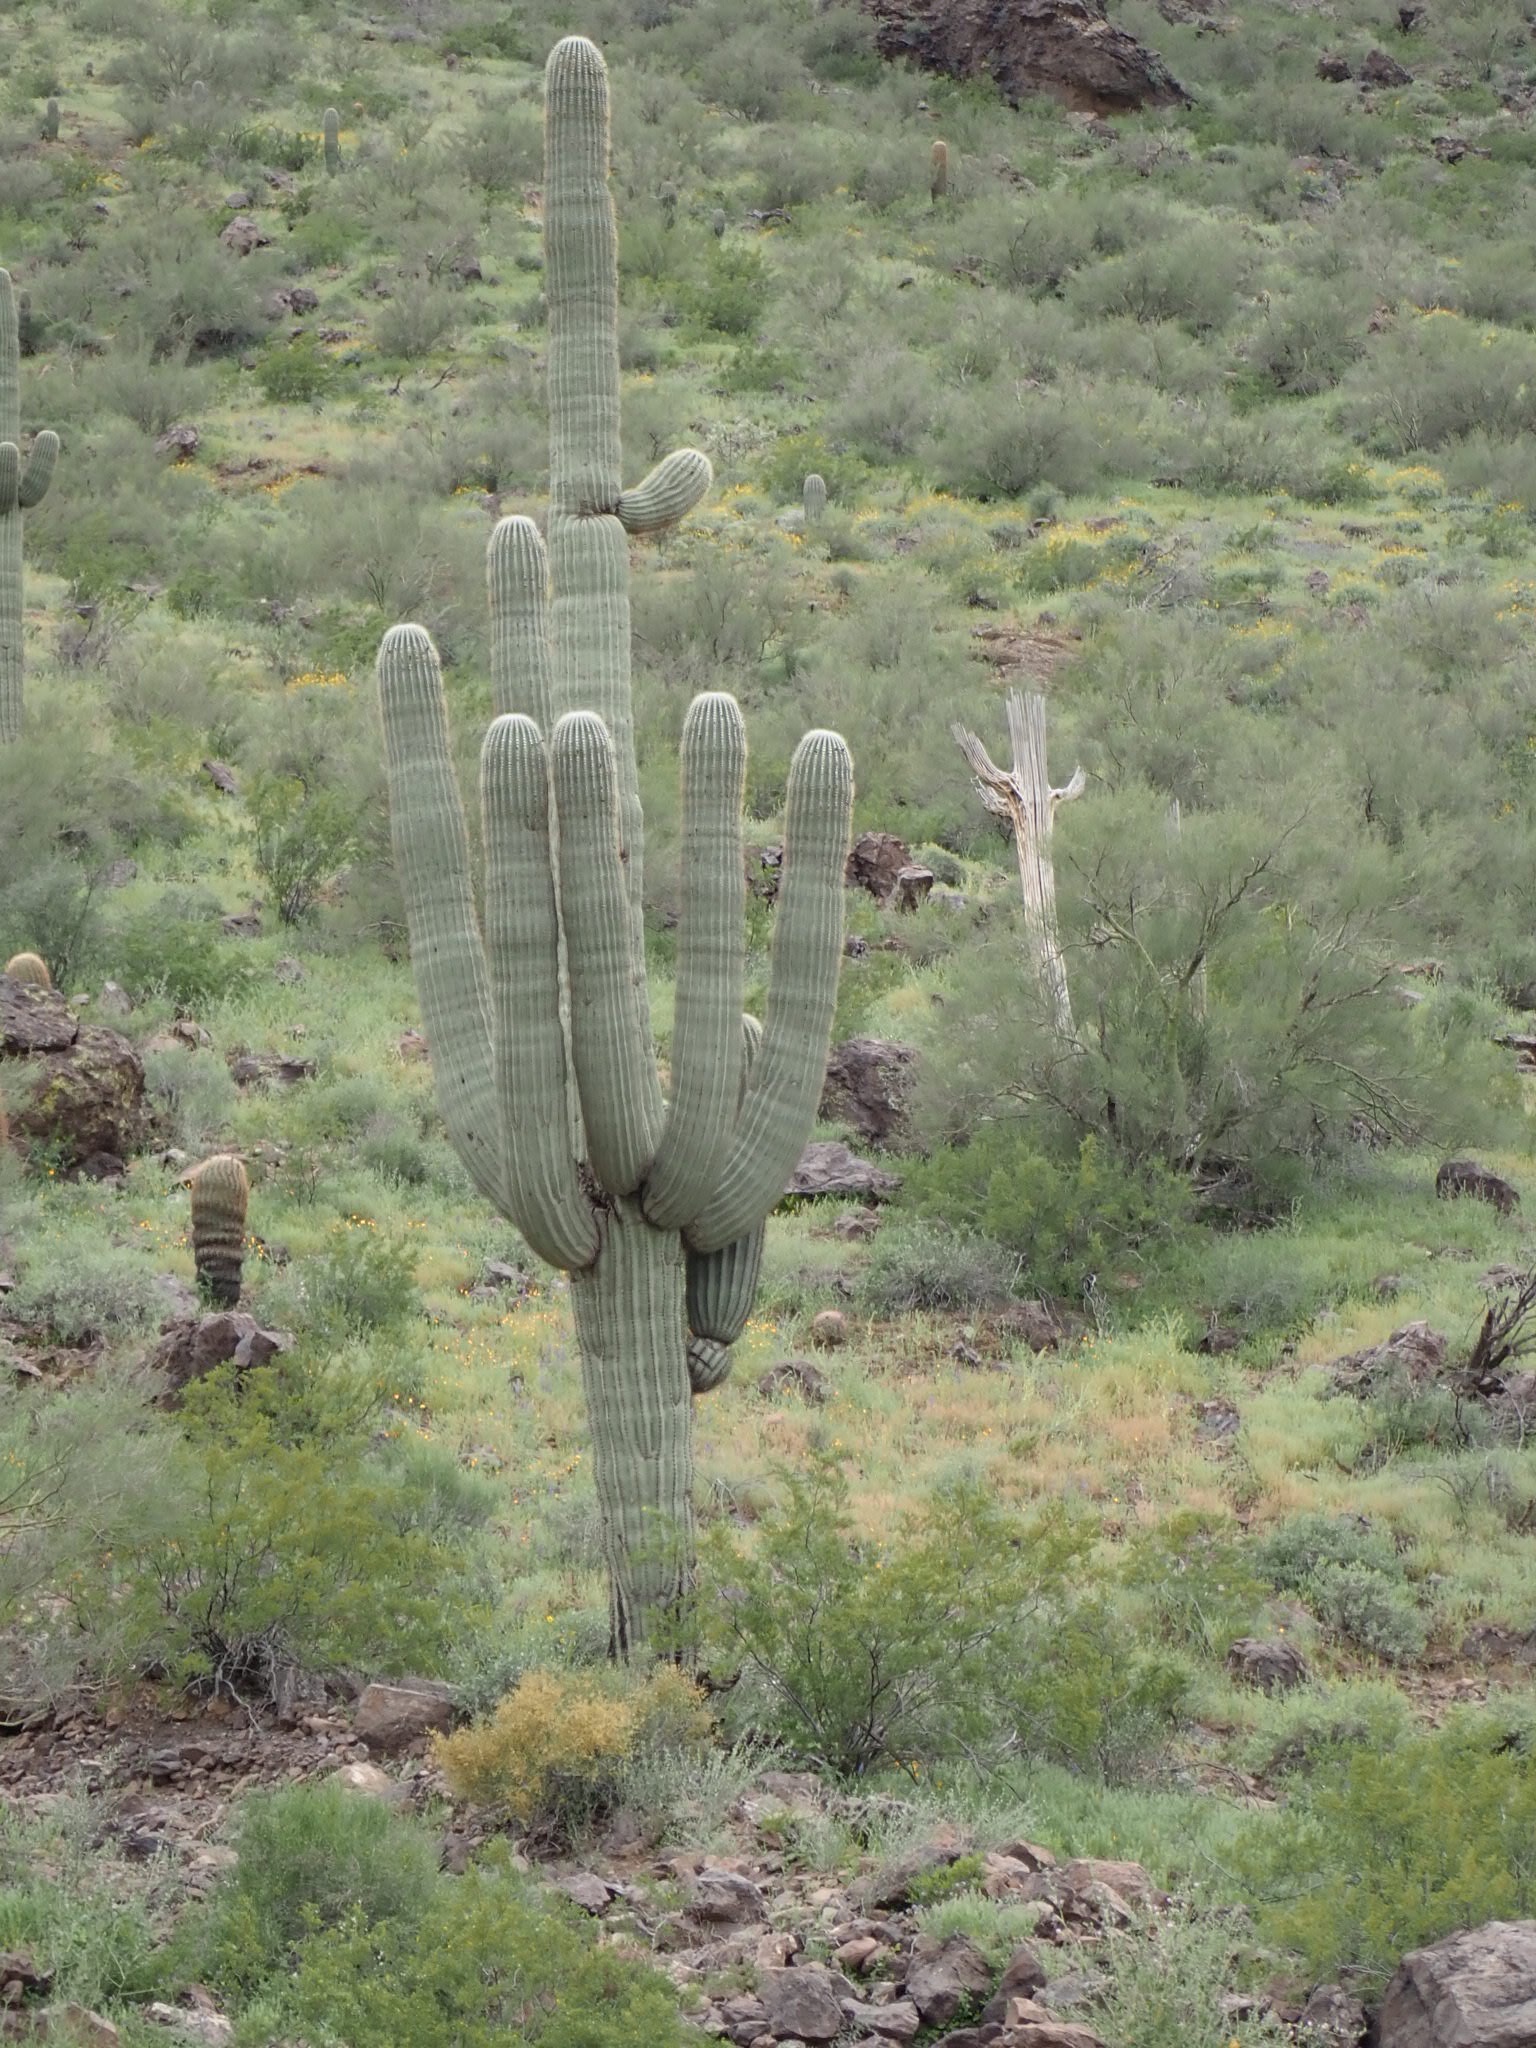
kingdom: Plantae
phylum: Tracheophyta
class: Magnoliopsida
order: Caryophyllales
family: Cactaceae
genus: Carnegiea
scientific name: Carnegiea gigantea
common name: Saguaro
